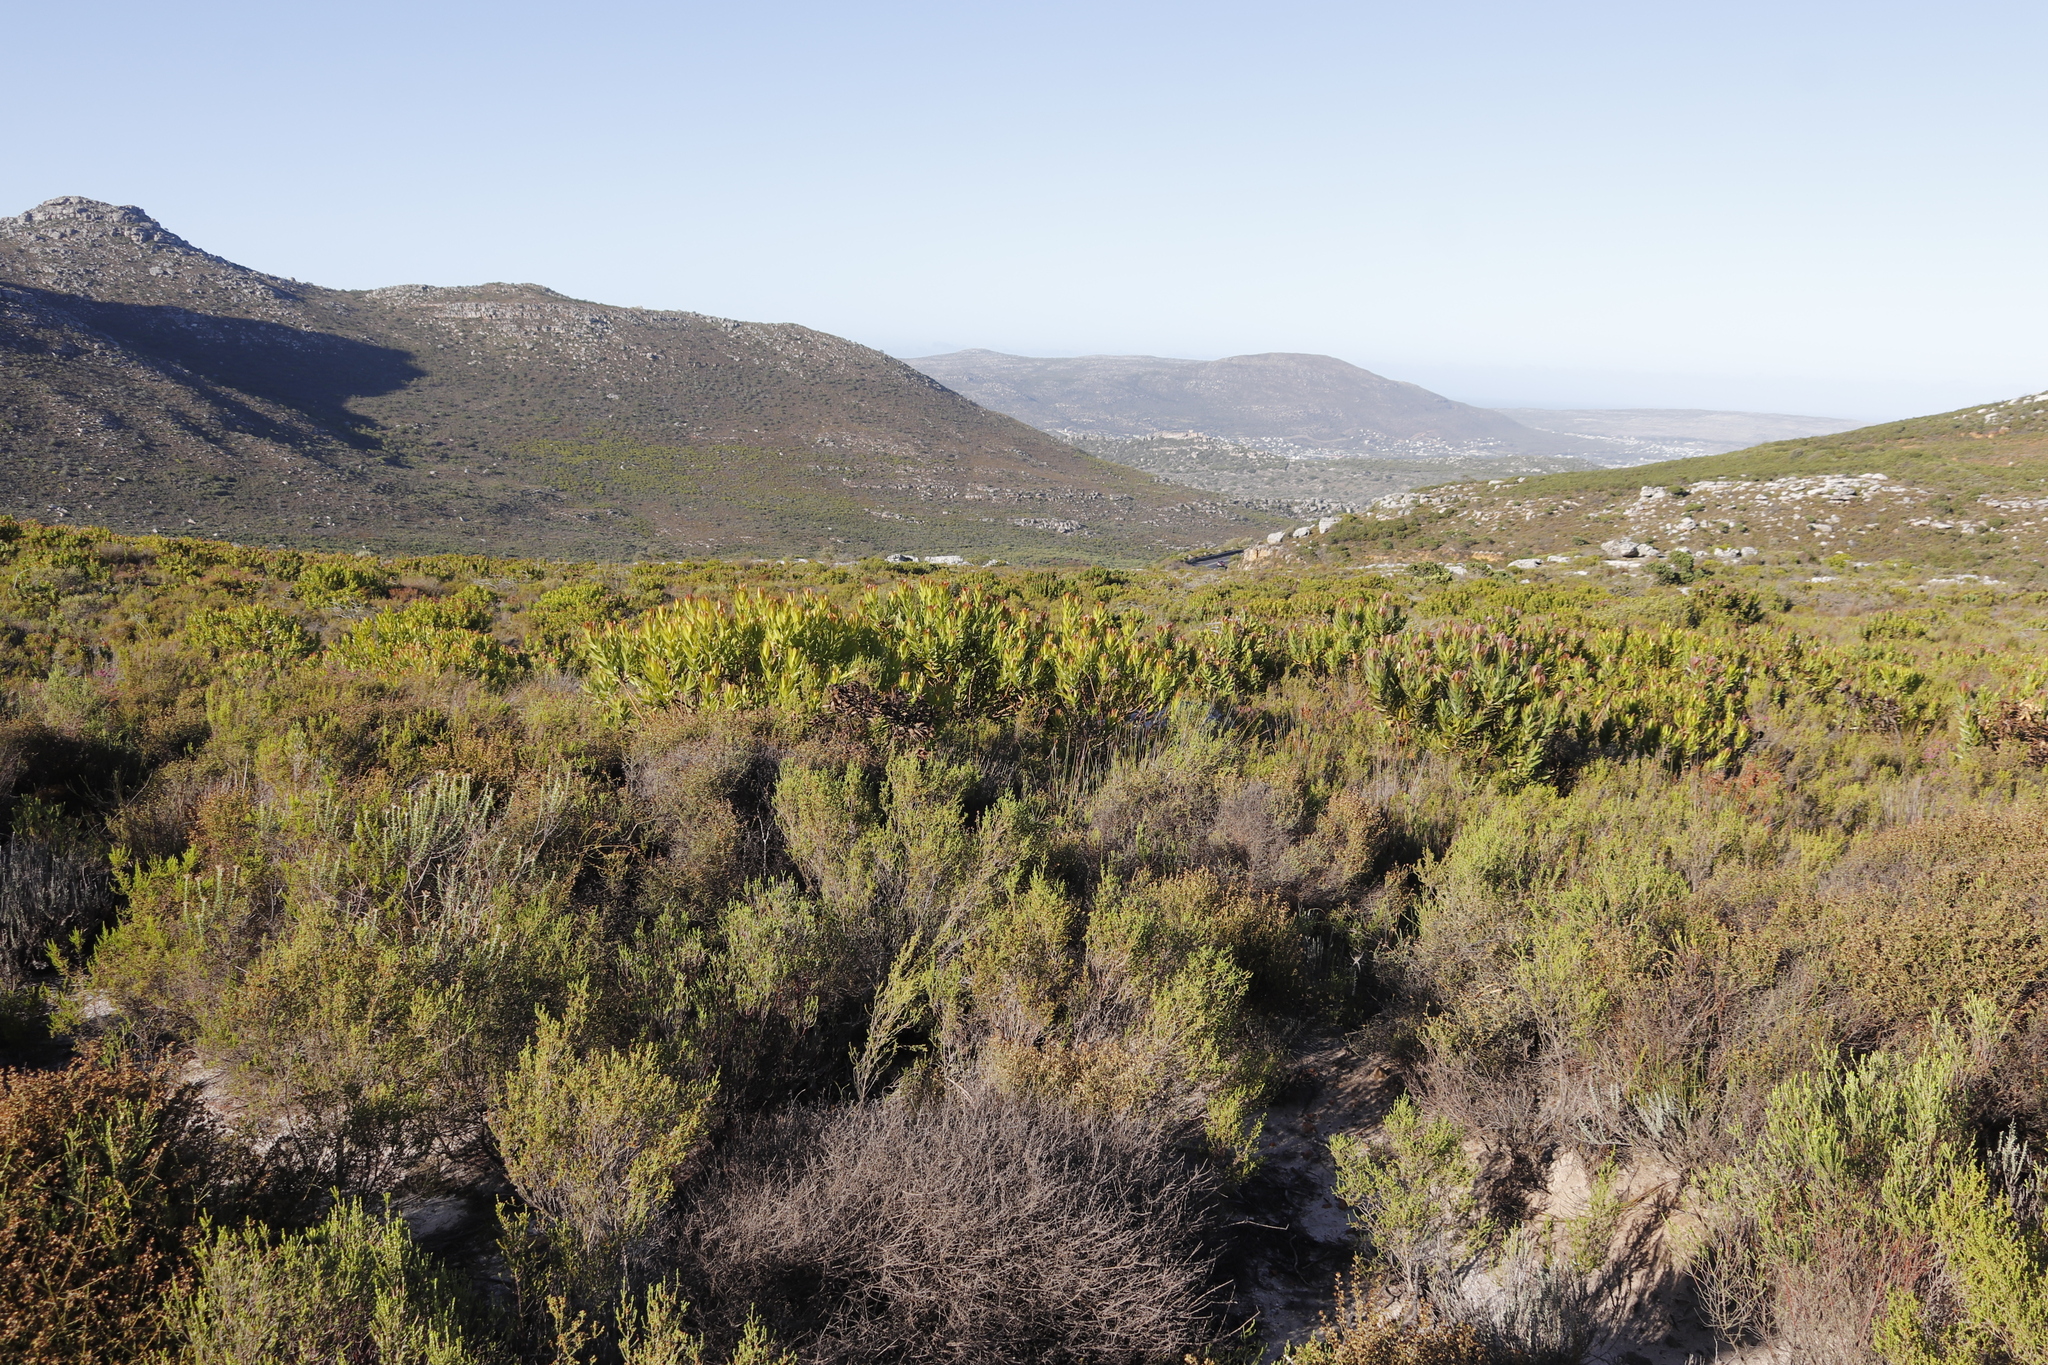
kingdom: Plantae
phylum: Tracheophyta
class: Magnoliopsida
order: Proteales
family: Proteaceae
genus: Leucadendron
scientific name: Leucadendron laureolum
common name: Golden sunshinebush
